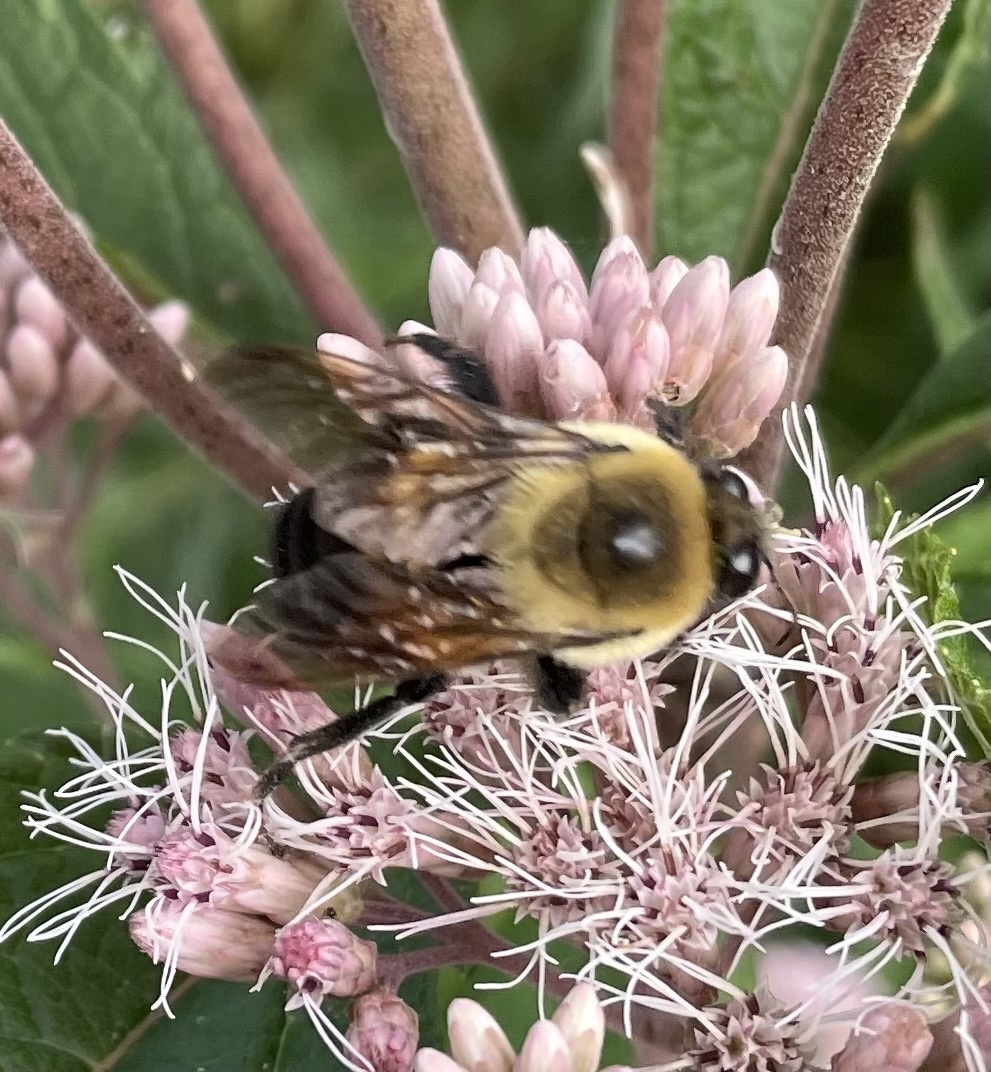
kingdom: Animalia
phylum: Arthropoda
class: Insecta
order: Hymenoptera
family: Apidae
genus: Bombus
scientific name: Bombus griseocollis
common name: Brown-belted bumble bee
